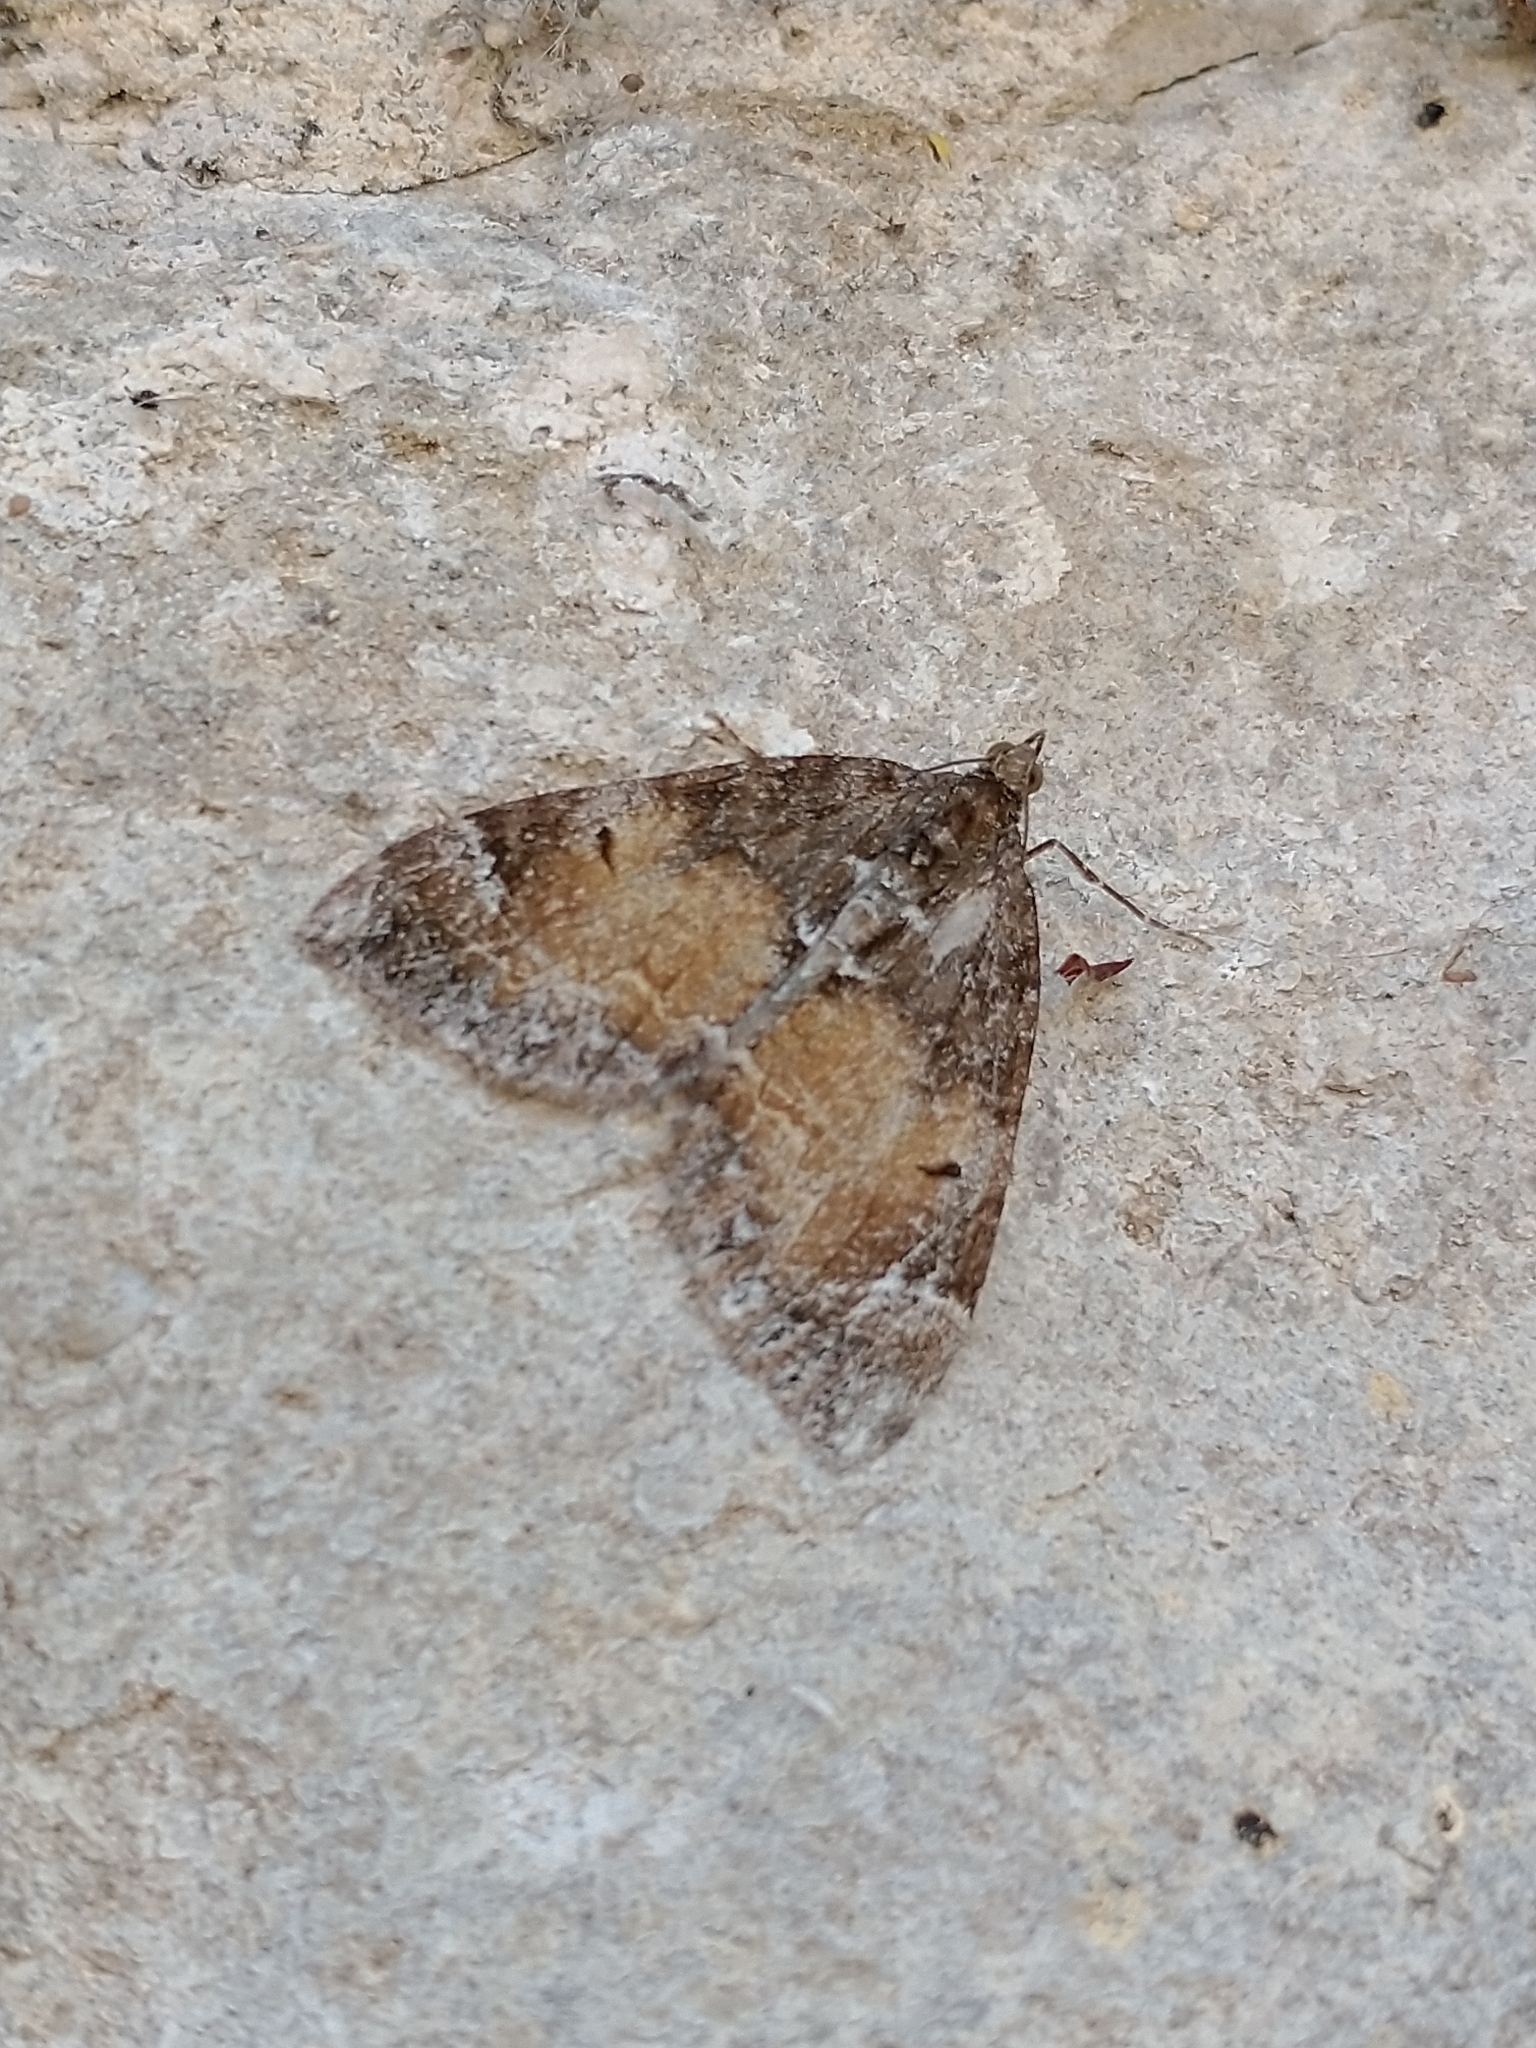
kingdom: Animalia
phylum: Arthropoda
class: Insecta
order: Lepidoptera
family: Geometridae
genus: Dysstroma
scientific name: Dysstroma truncata
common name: Common marbled carpet
